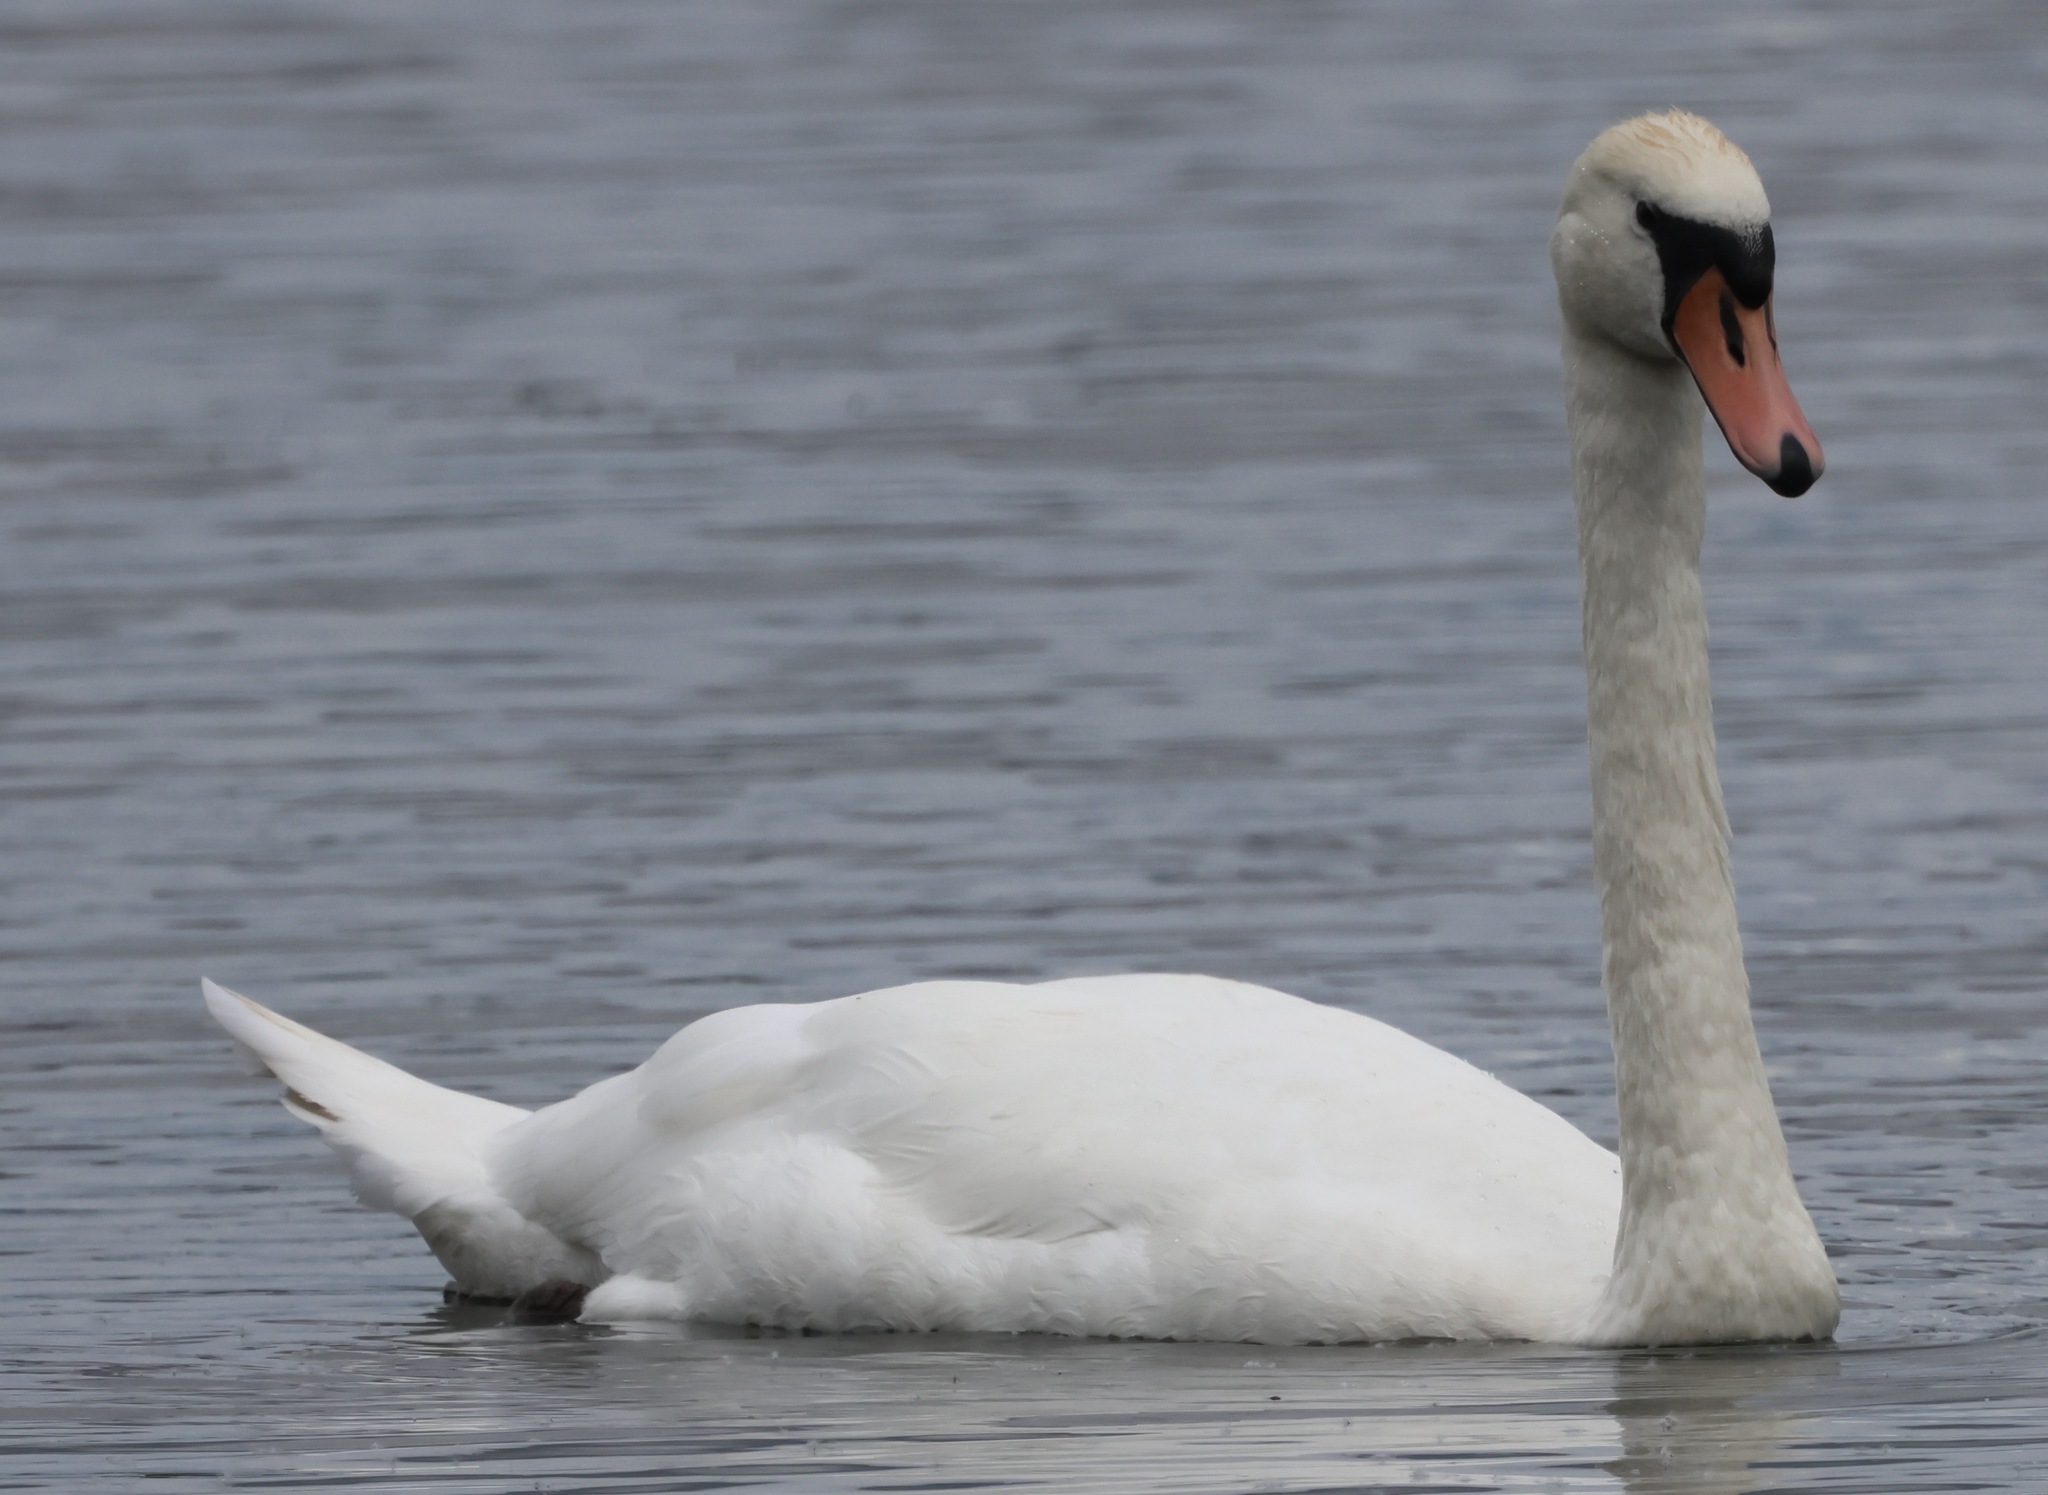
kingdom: Animalia
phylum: Chordata
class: Aves
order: Anseriformes
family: Anatidae
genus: Cygnus
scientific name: Cygnus olor
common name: Mute swan
